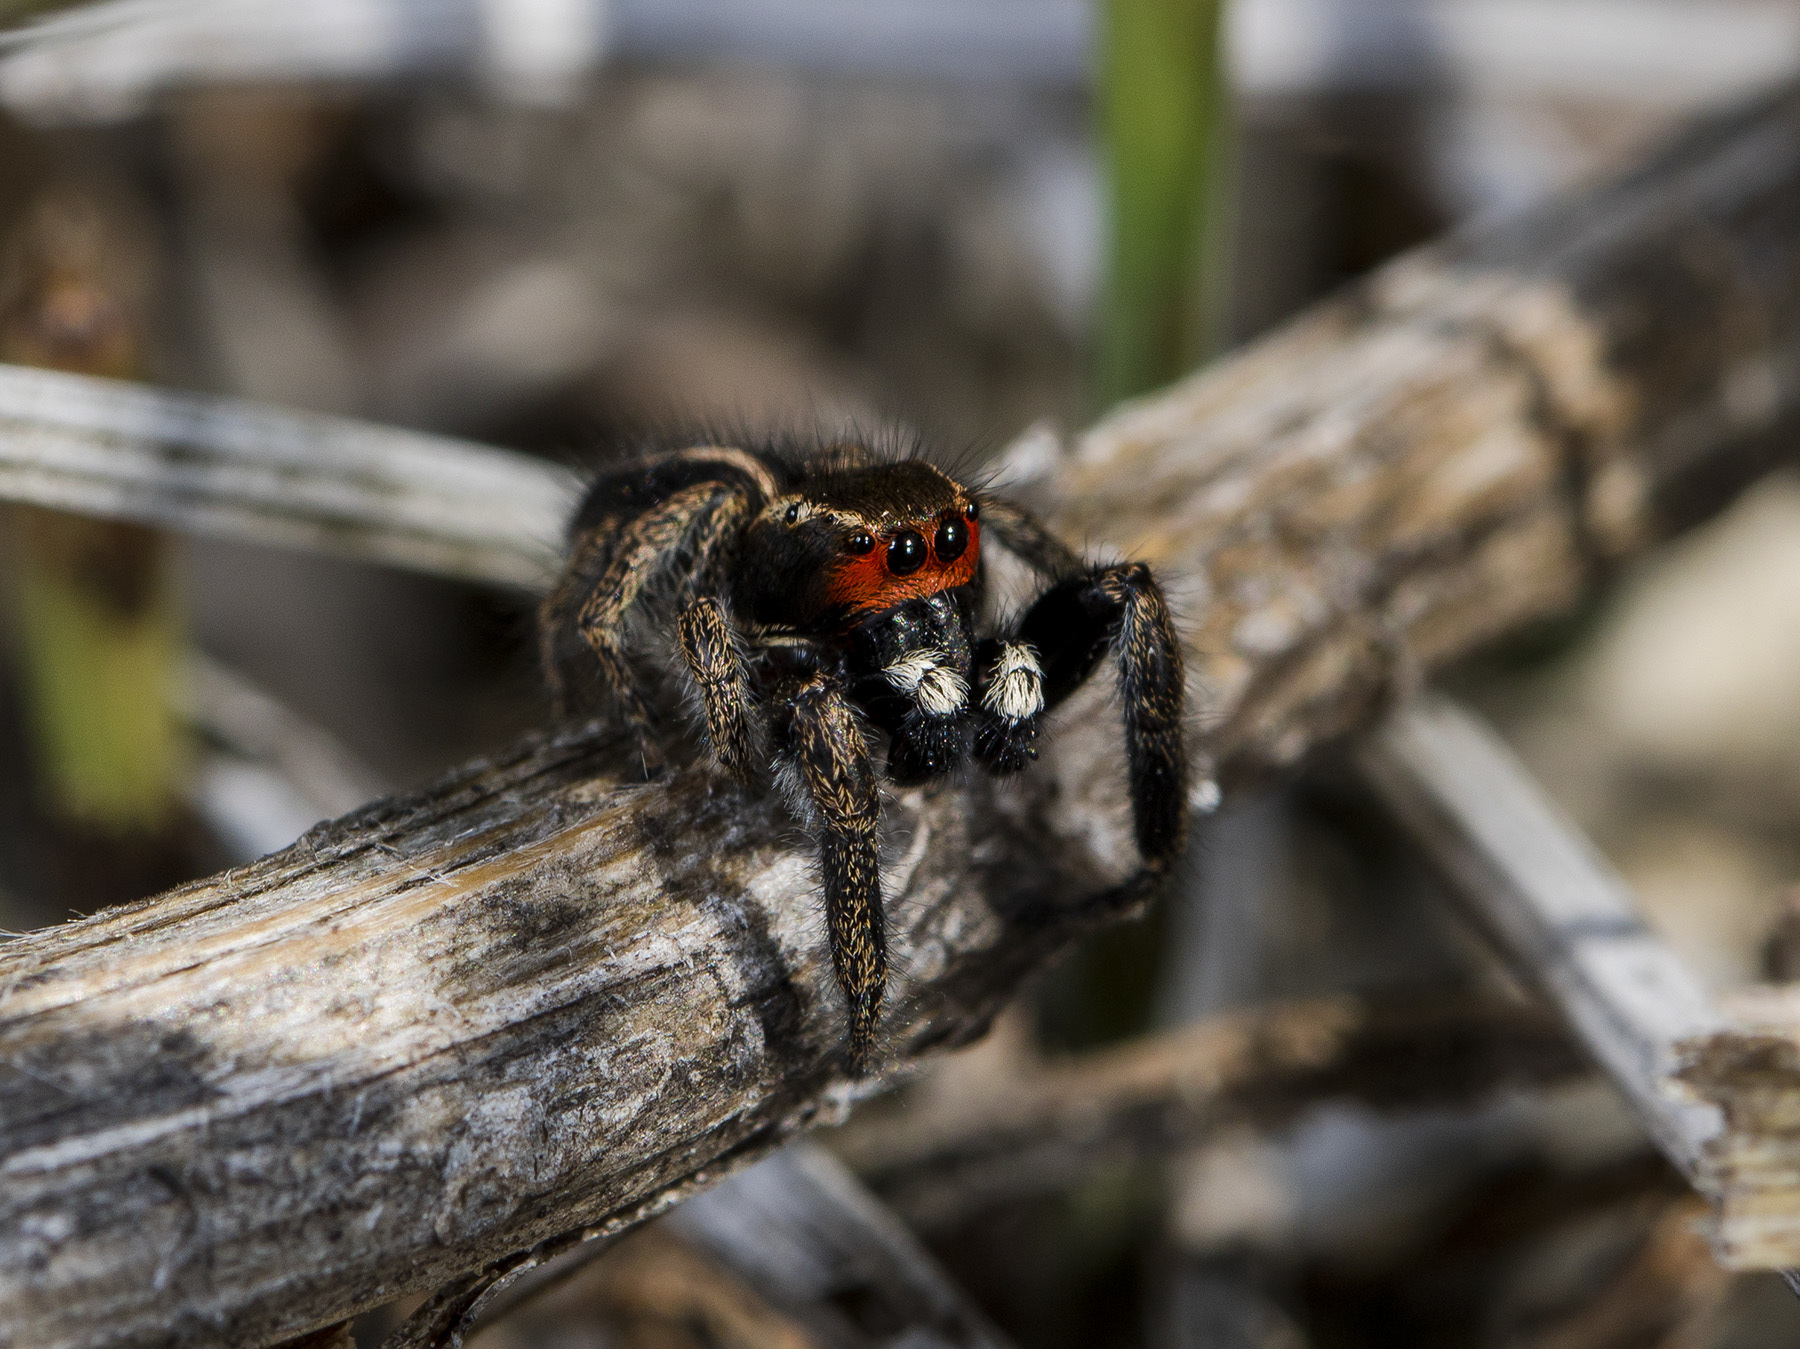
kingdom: Animalia
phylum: Arthropoda
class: Arachnida
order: Araneae
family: Salticidae
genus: Pellenes
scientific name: Pellenes seriatus
